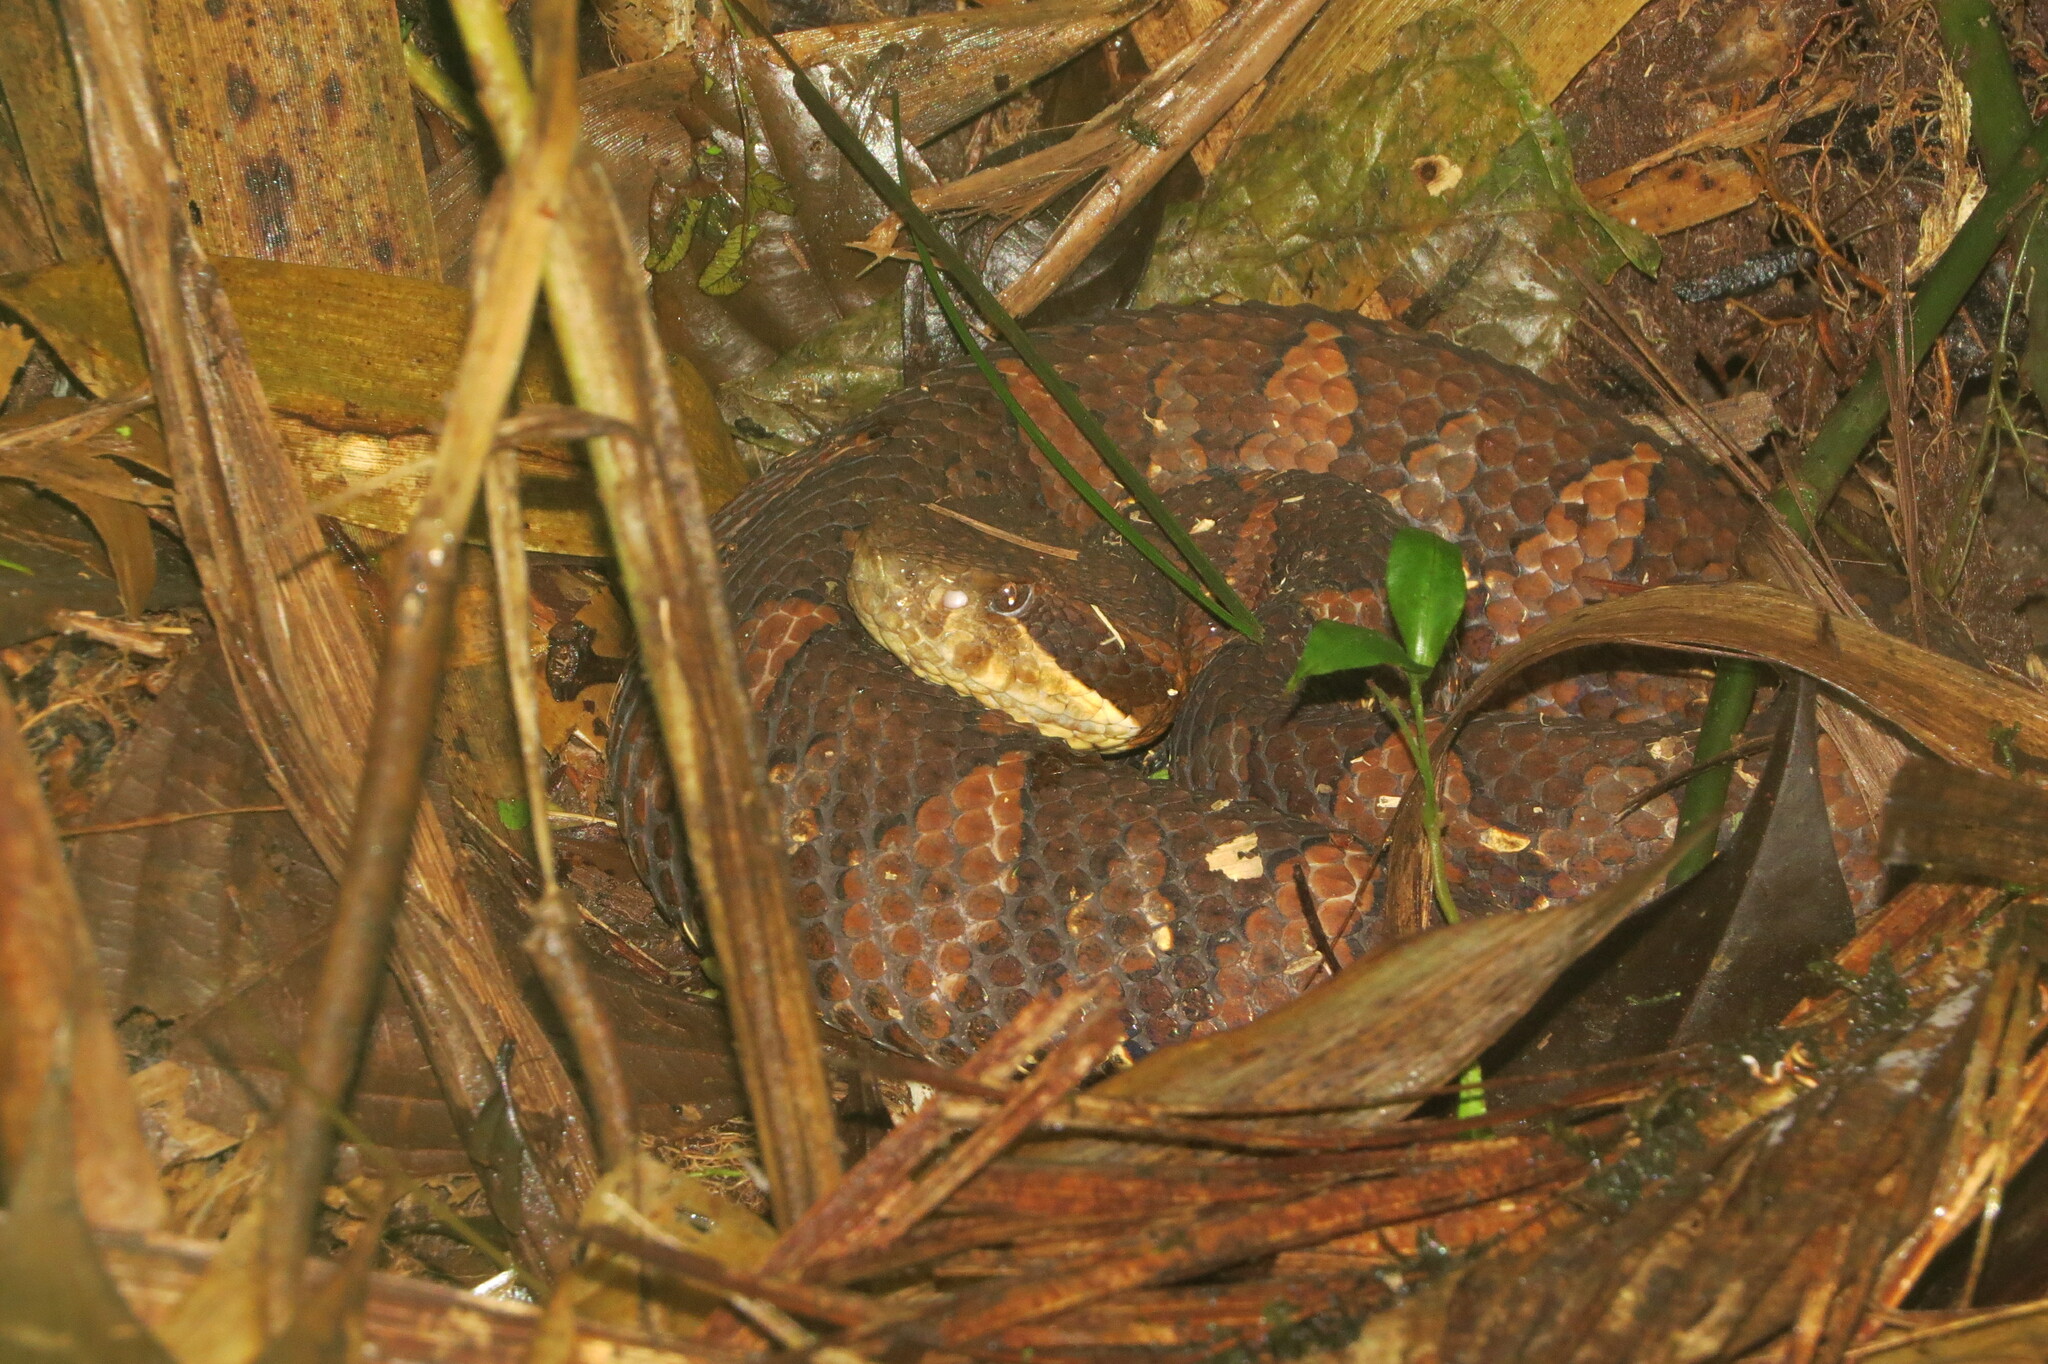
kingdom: Animalia
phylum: Chordata
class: Squamata
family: Viperidae
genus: Atropoides
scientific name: Atropoides picadoi
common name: Picado's pit viper
